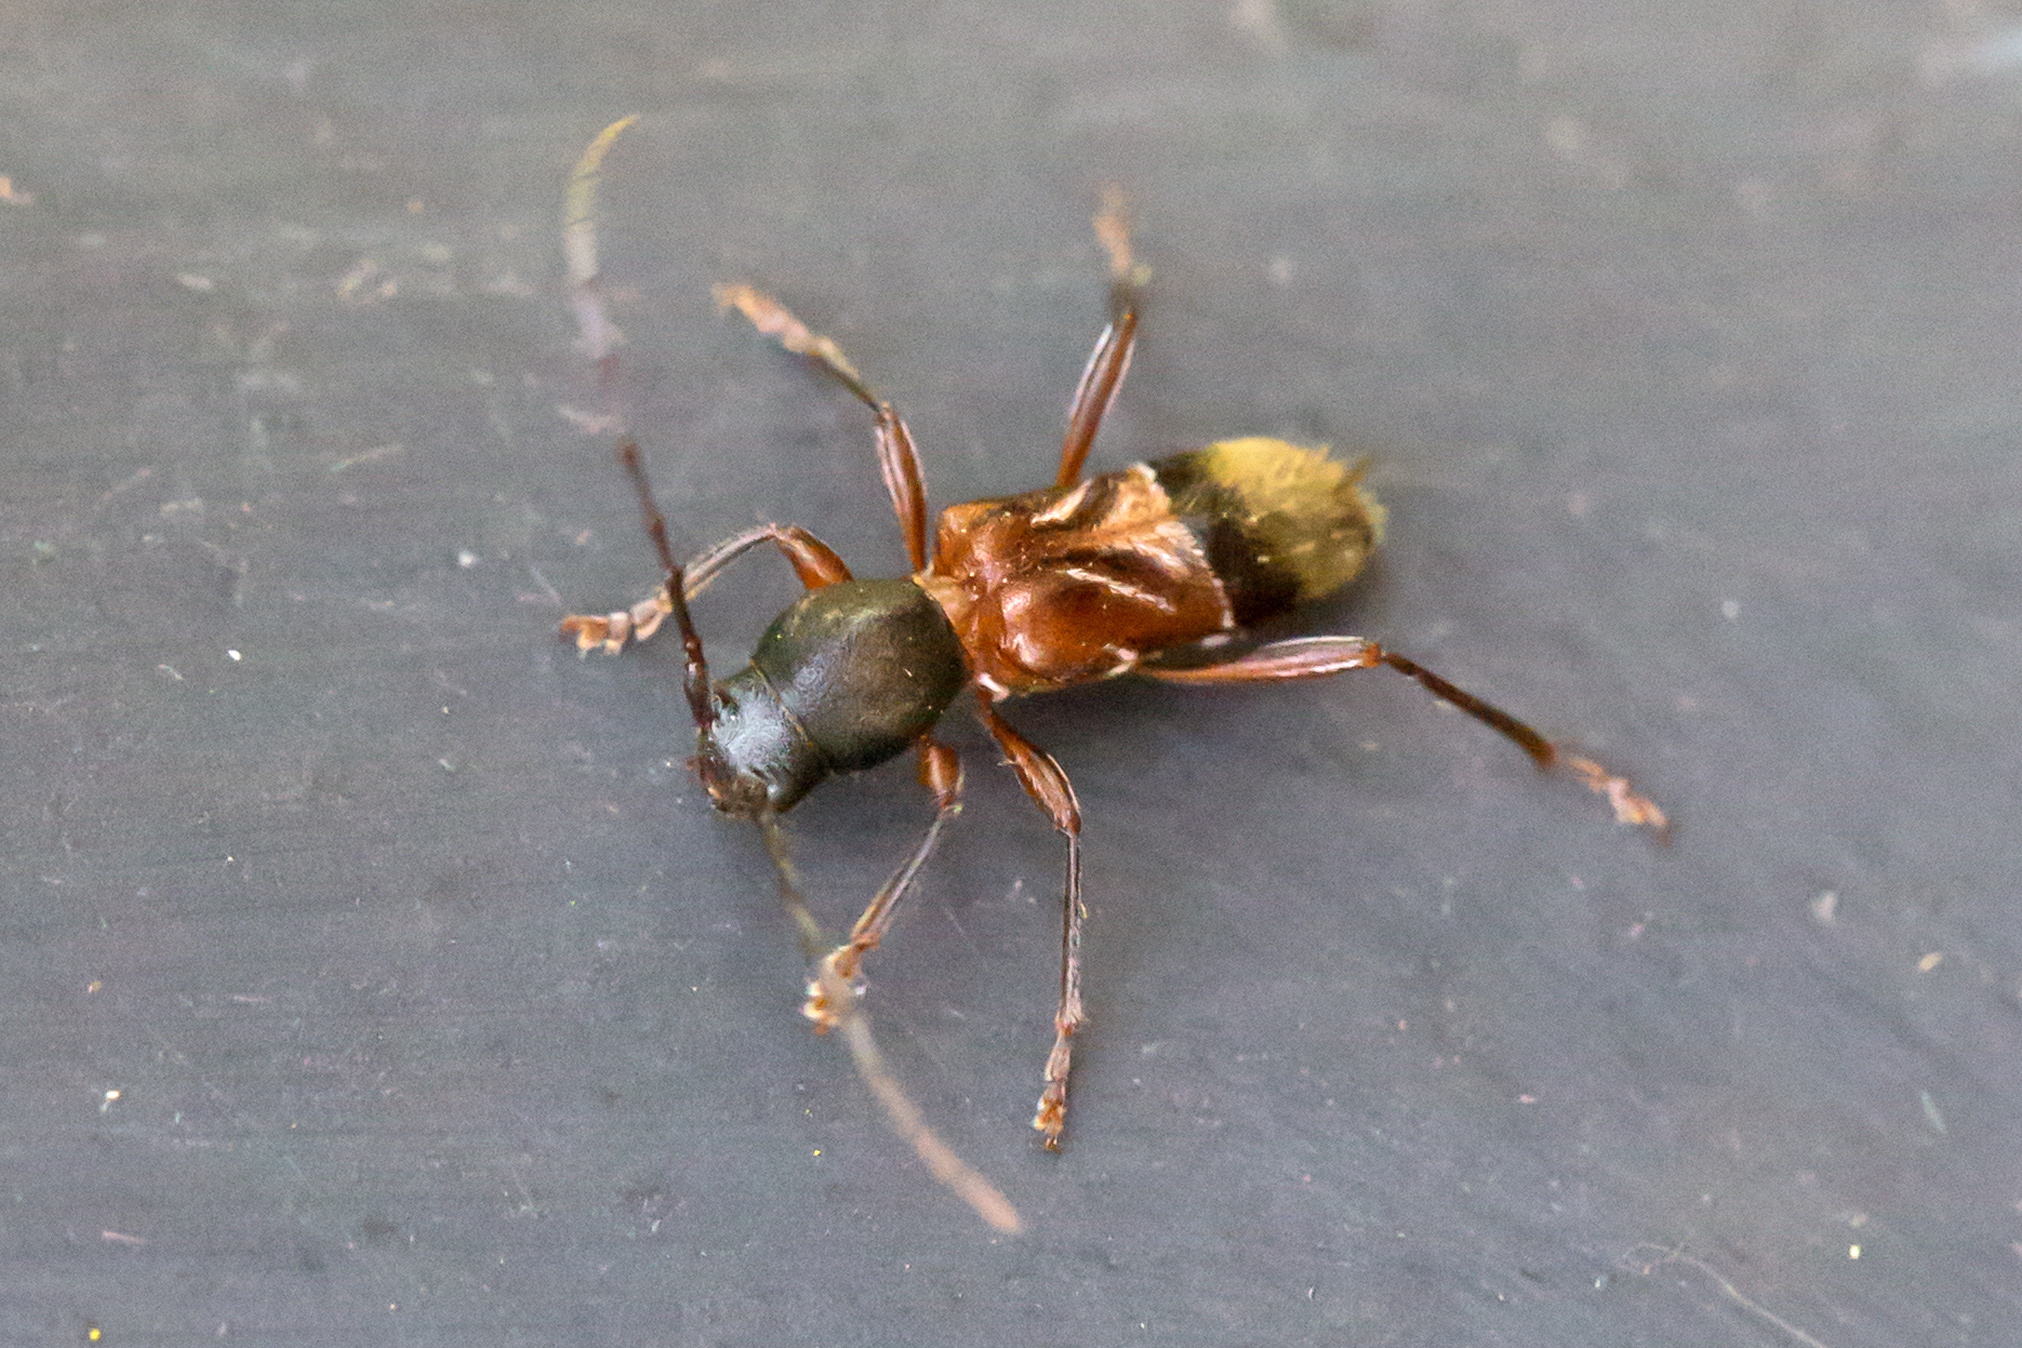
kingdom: Animalia
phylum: Arthropoda
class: Insecta
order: Coleoptera
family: Cerambycidae
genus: Cyrtophorus
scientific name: Cyrtophorus verrucosus
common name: Ant-like longhorn beetle
